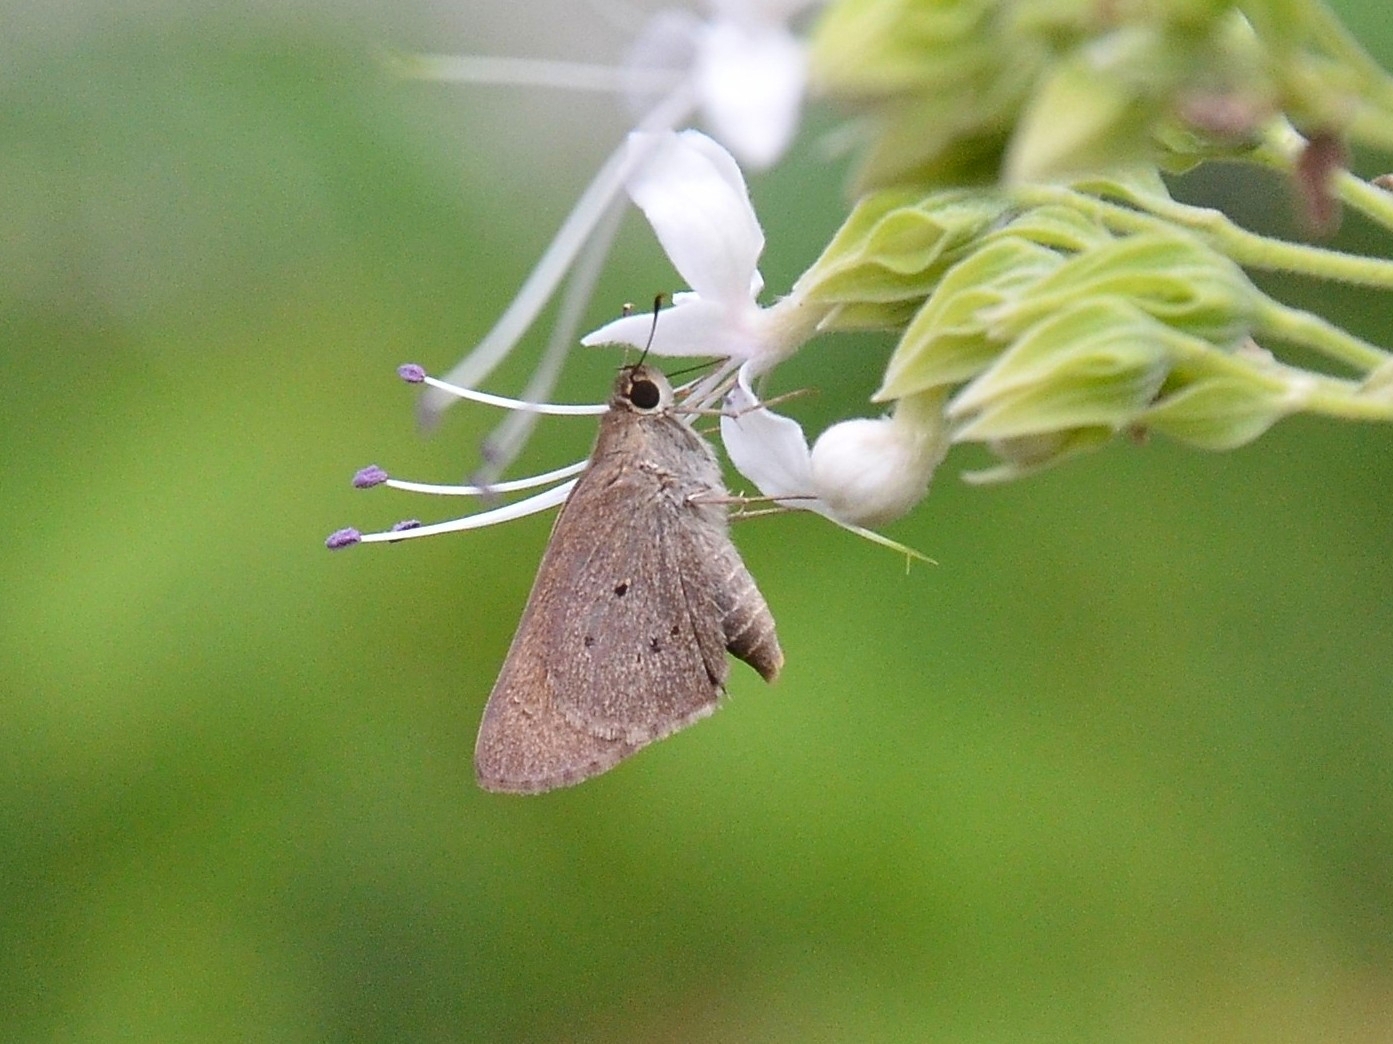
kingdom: Animalia
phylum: Arthropoda
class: Insecta
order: Lepidoptera
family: Hesperiidae
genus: Suastus
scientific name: Suastus gremius
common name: Indian palm bob
